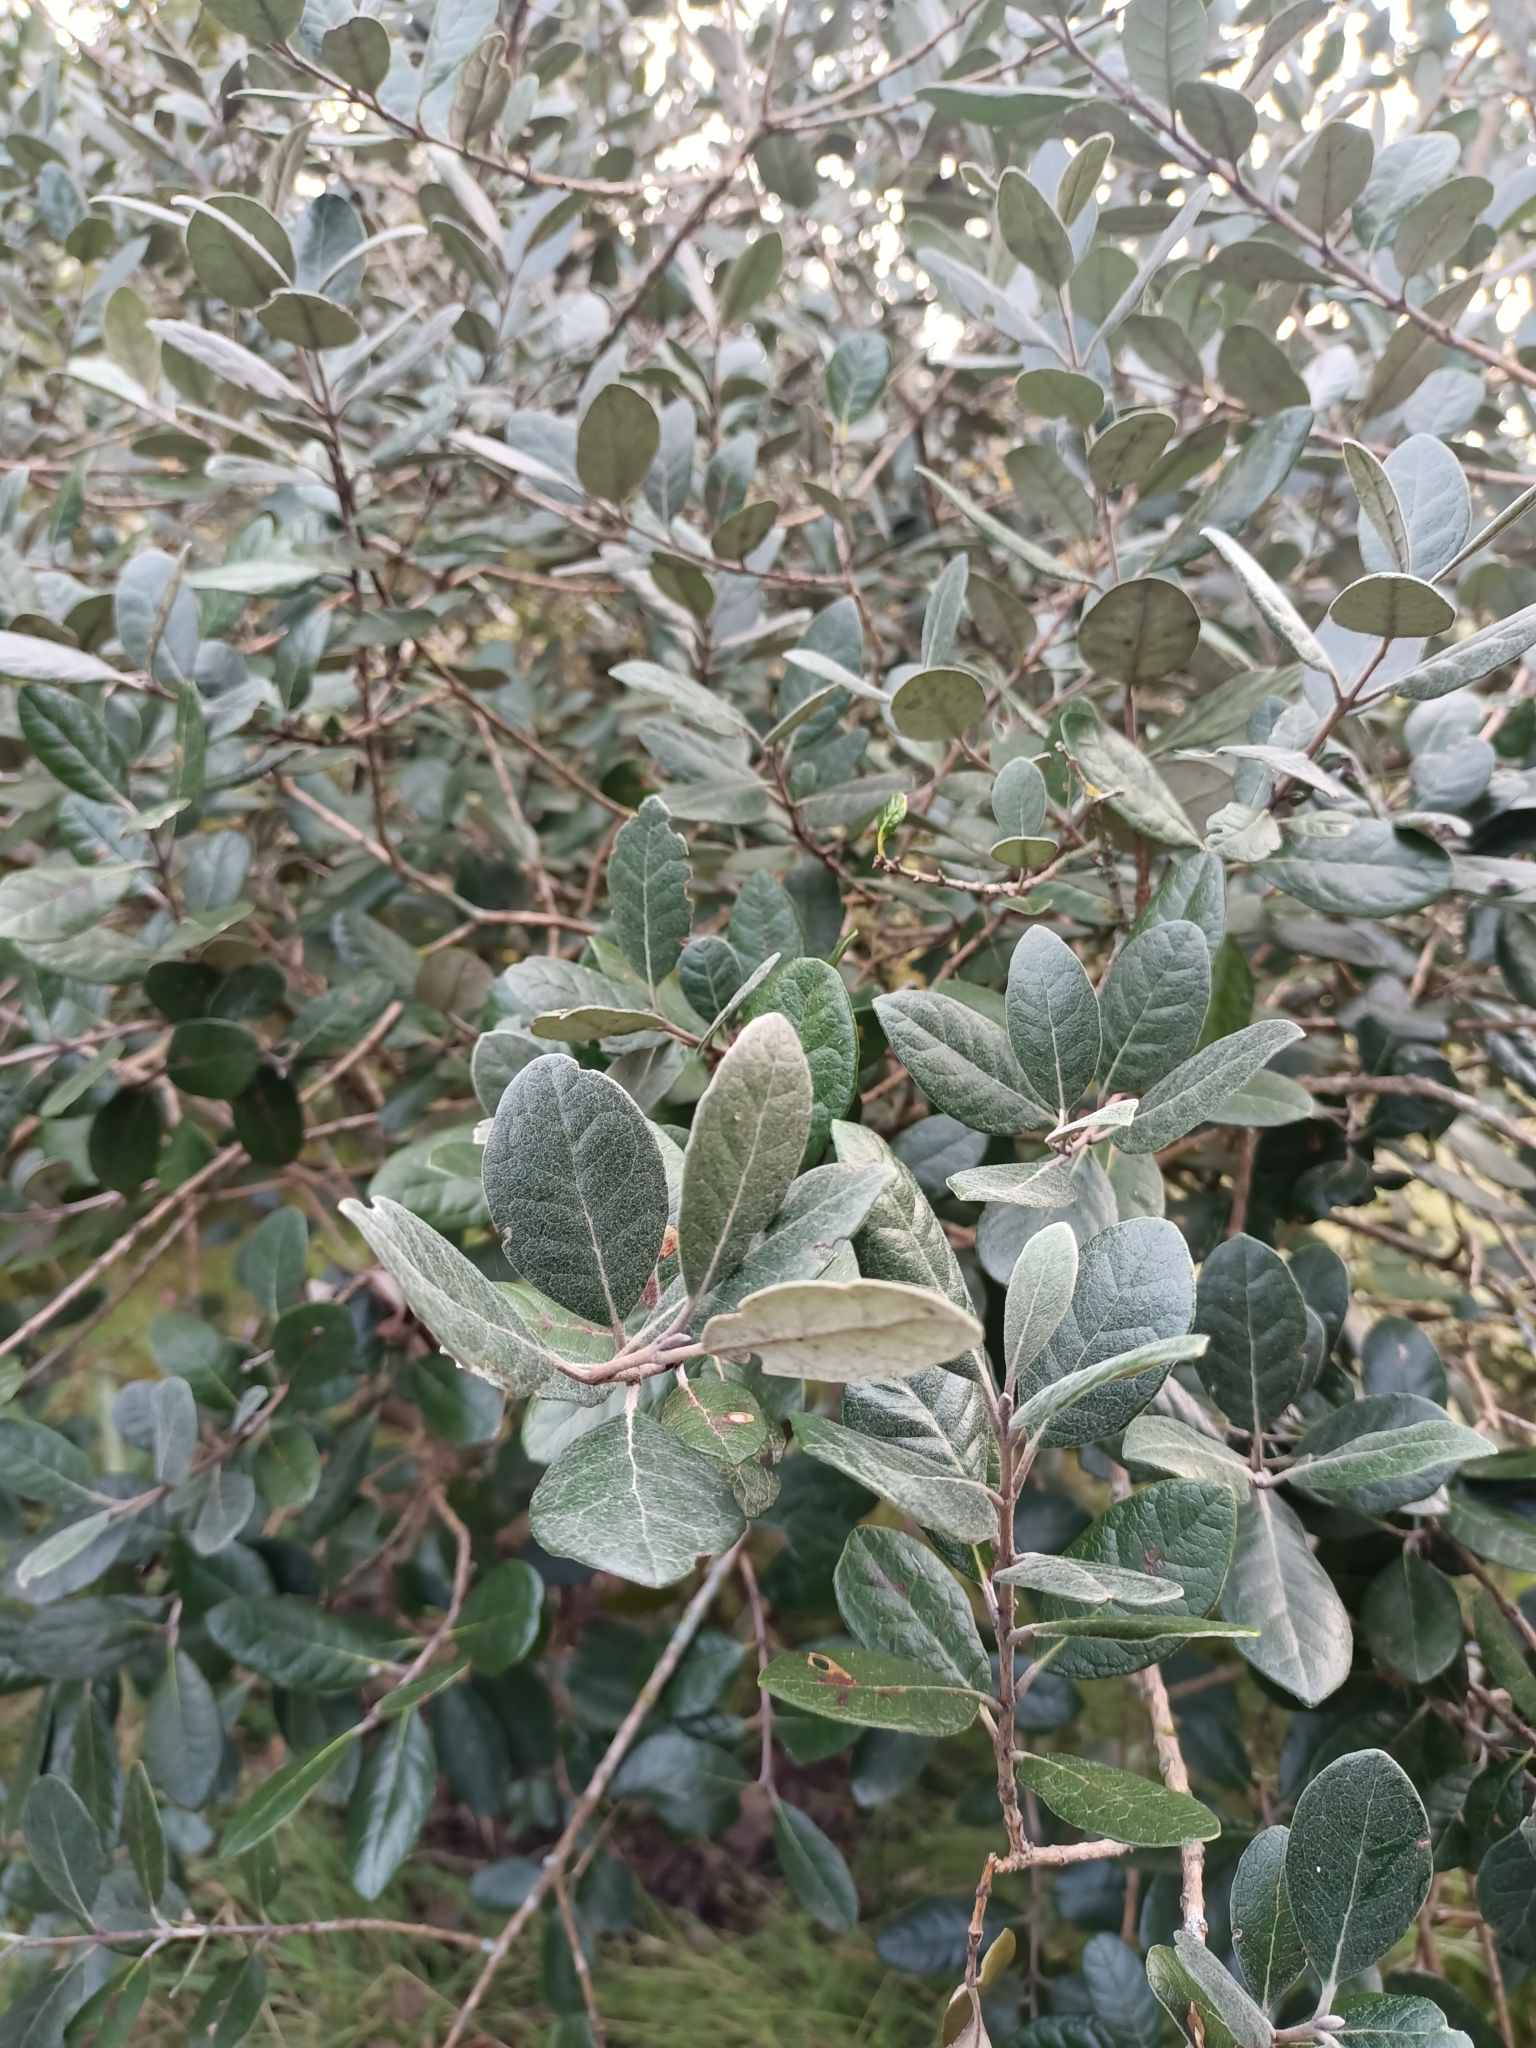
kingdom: Plantae
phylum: Tracheophyta
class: Magnoliopsida
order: Myrtales
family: Myrtaceae
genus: Feijoa
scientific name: Feijoa sellowiana
